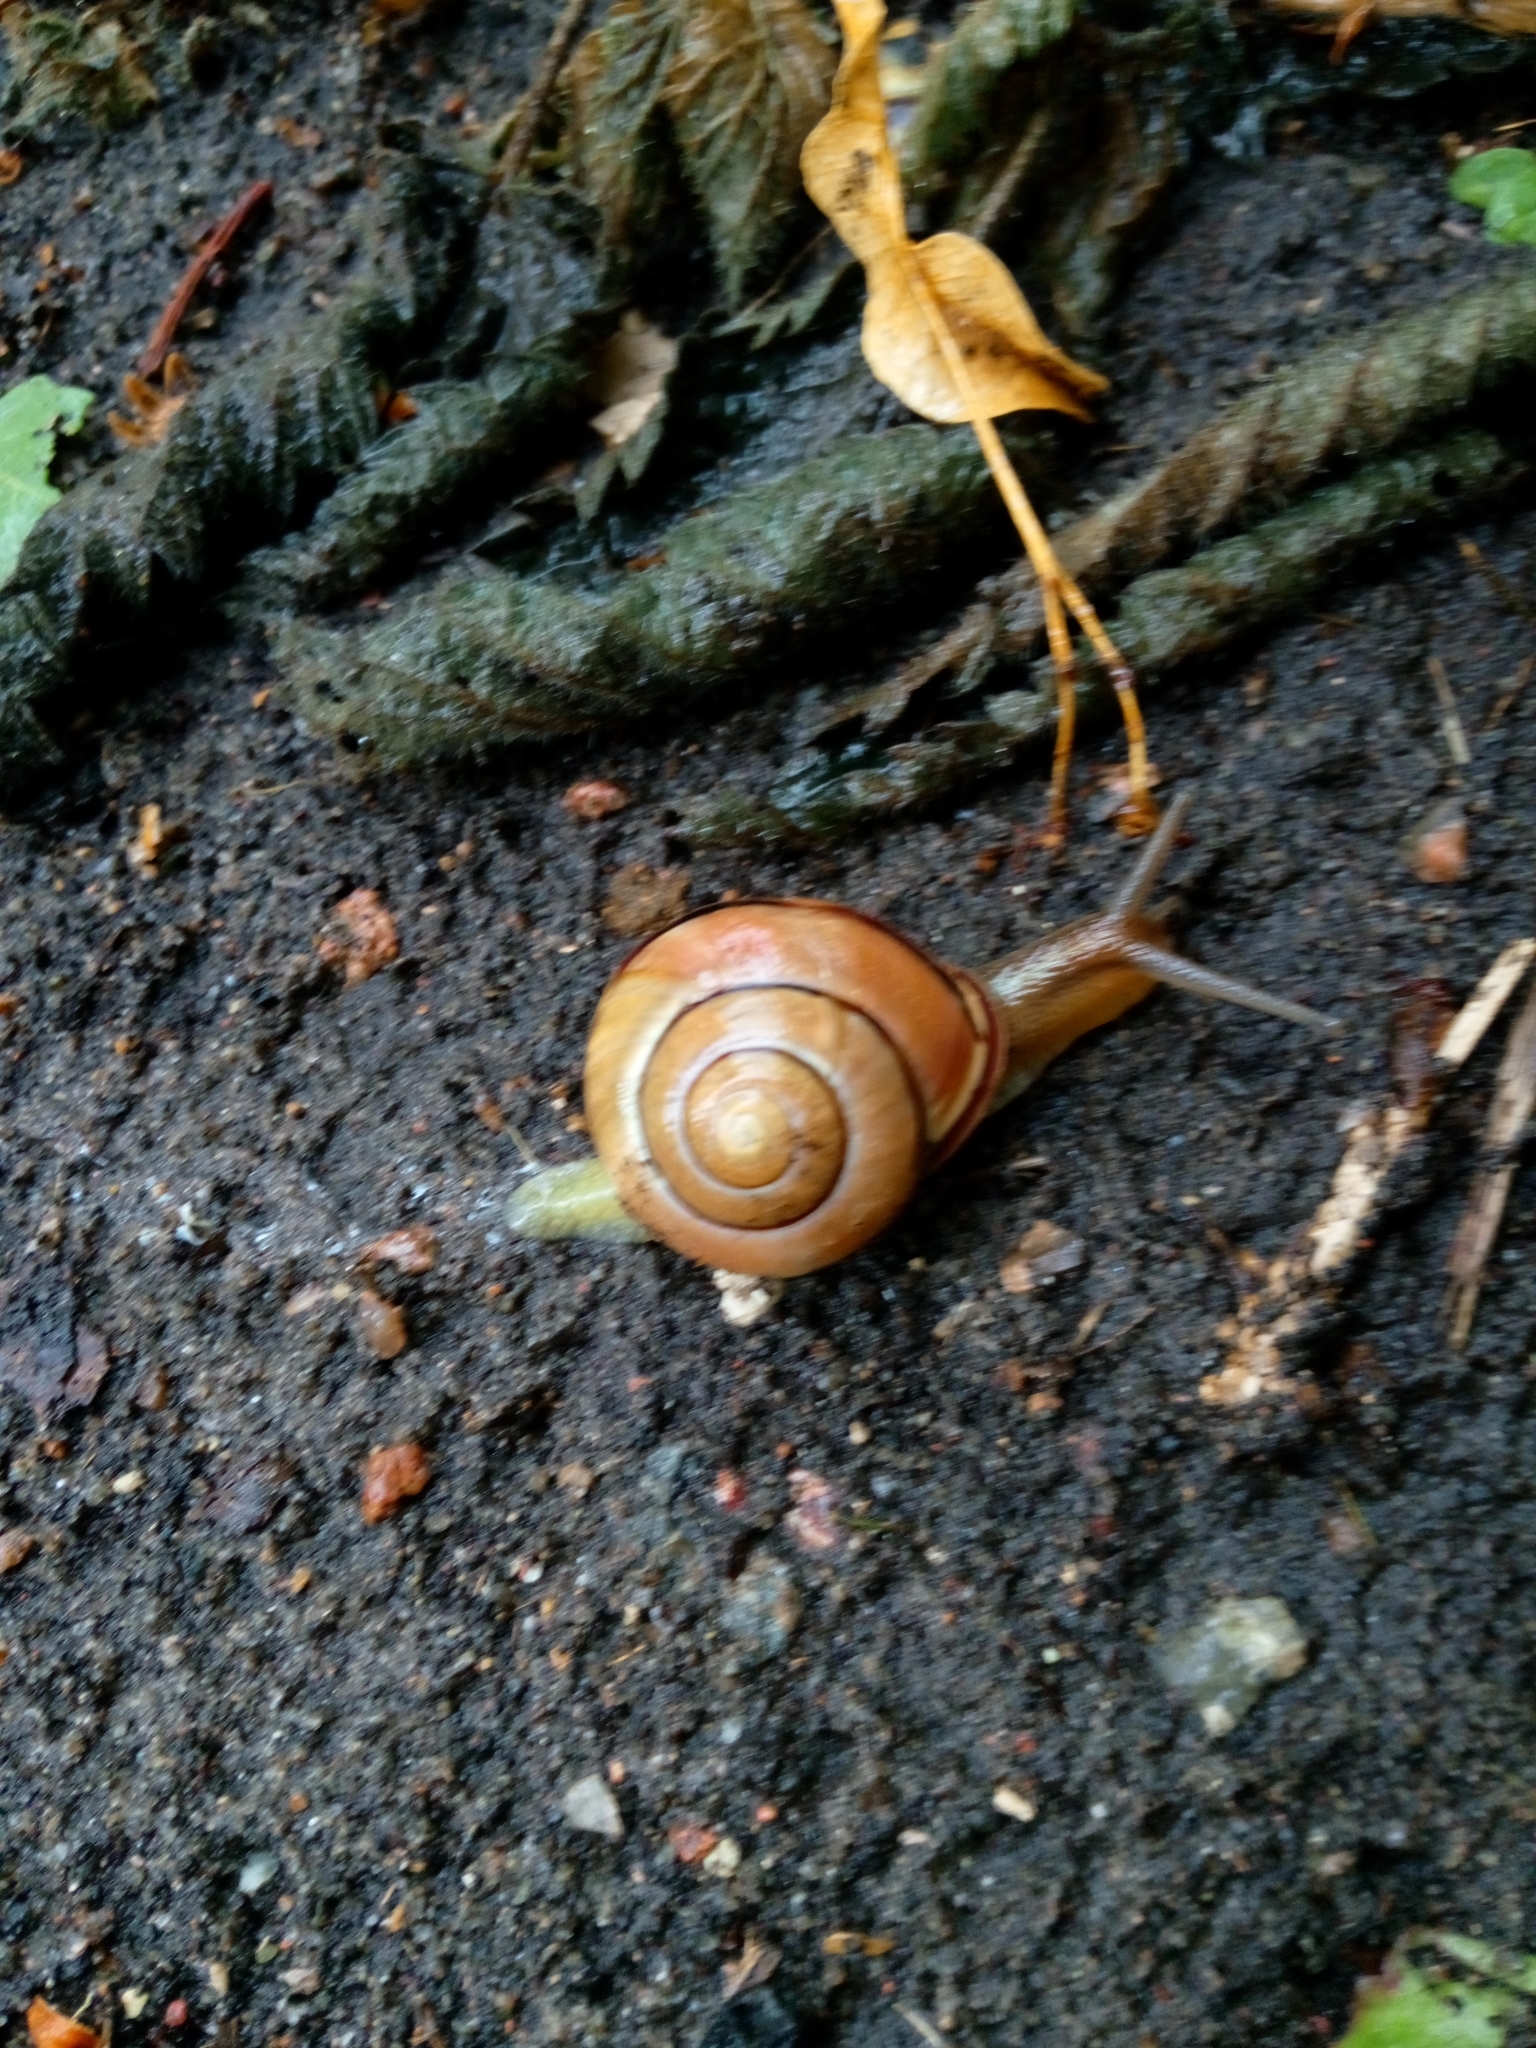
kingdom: Animalia
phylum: Mollusca
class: Gastropoda
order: Stylommatophora
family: Helicidae
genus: Cepaea
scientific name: Cepaea nemoralis
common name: Grovesnail
